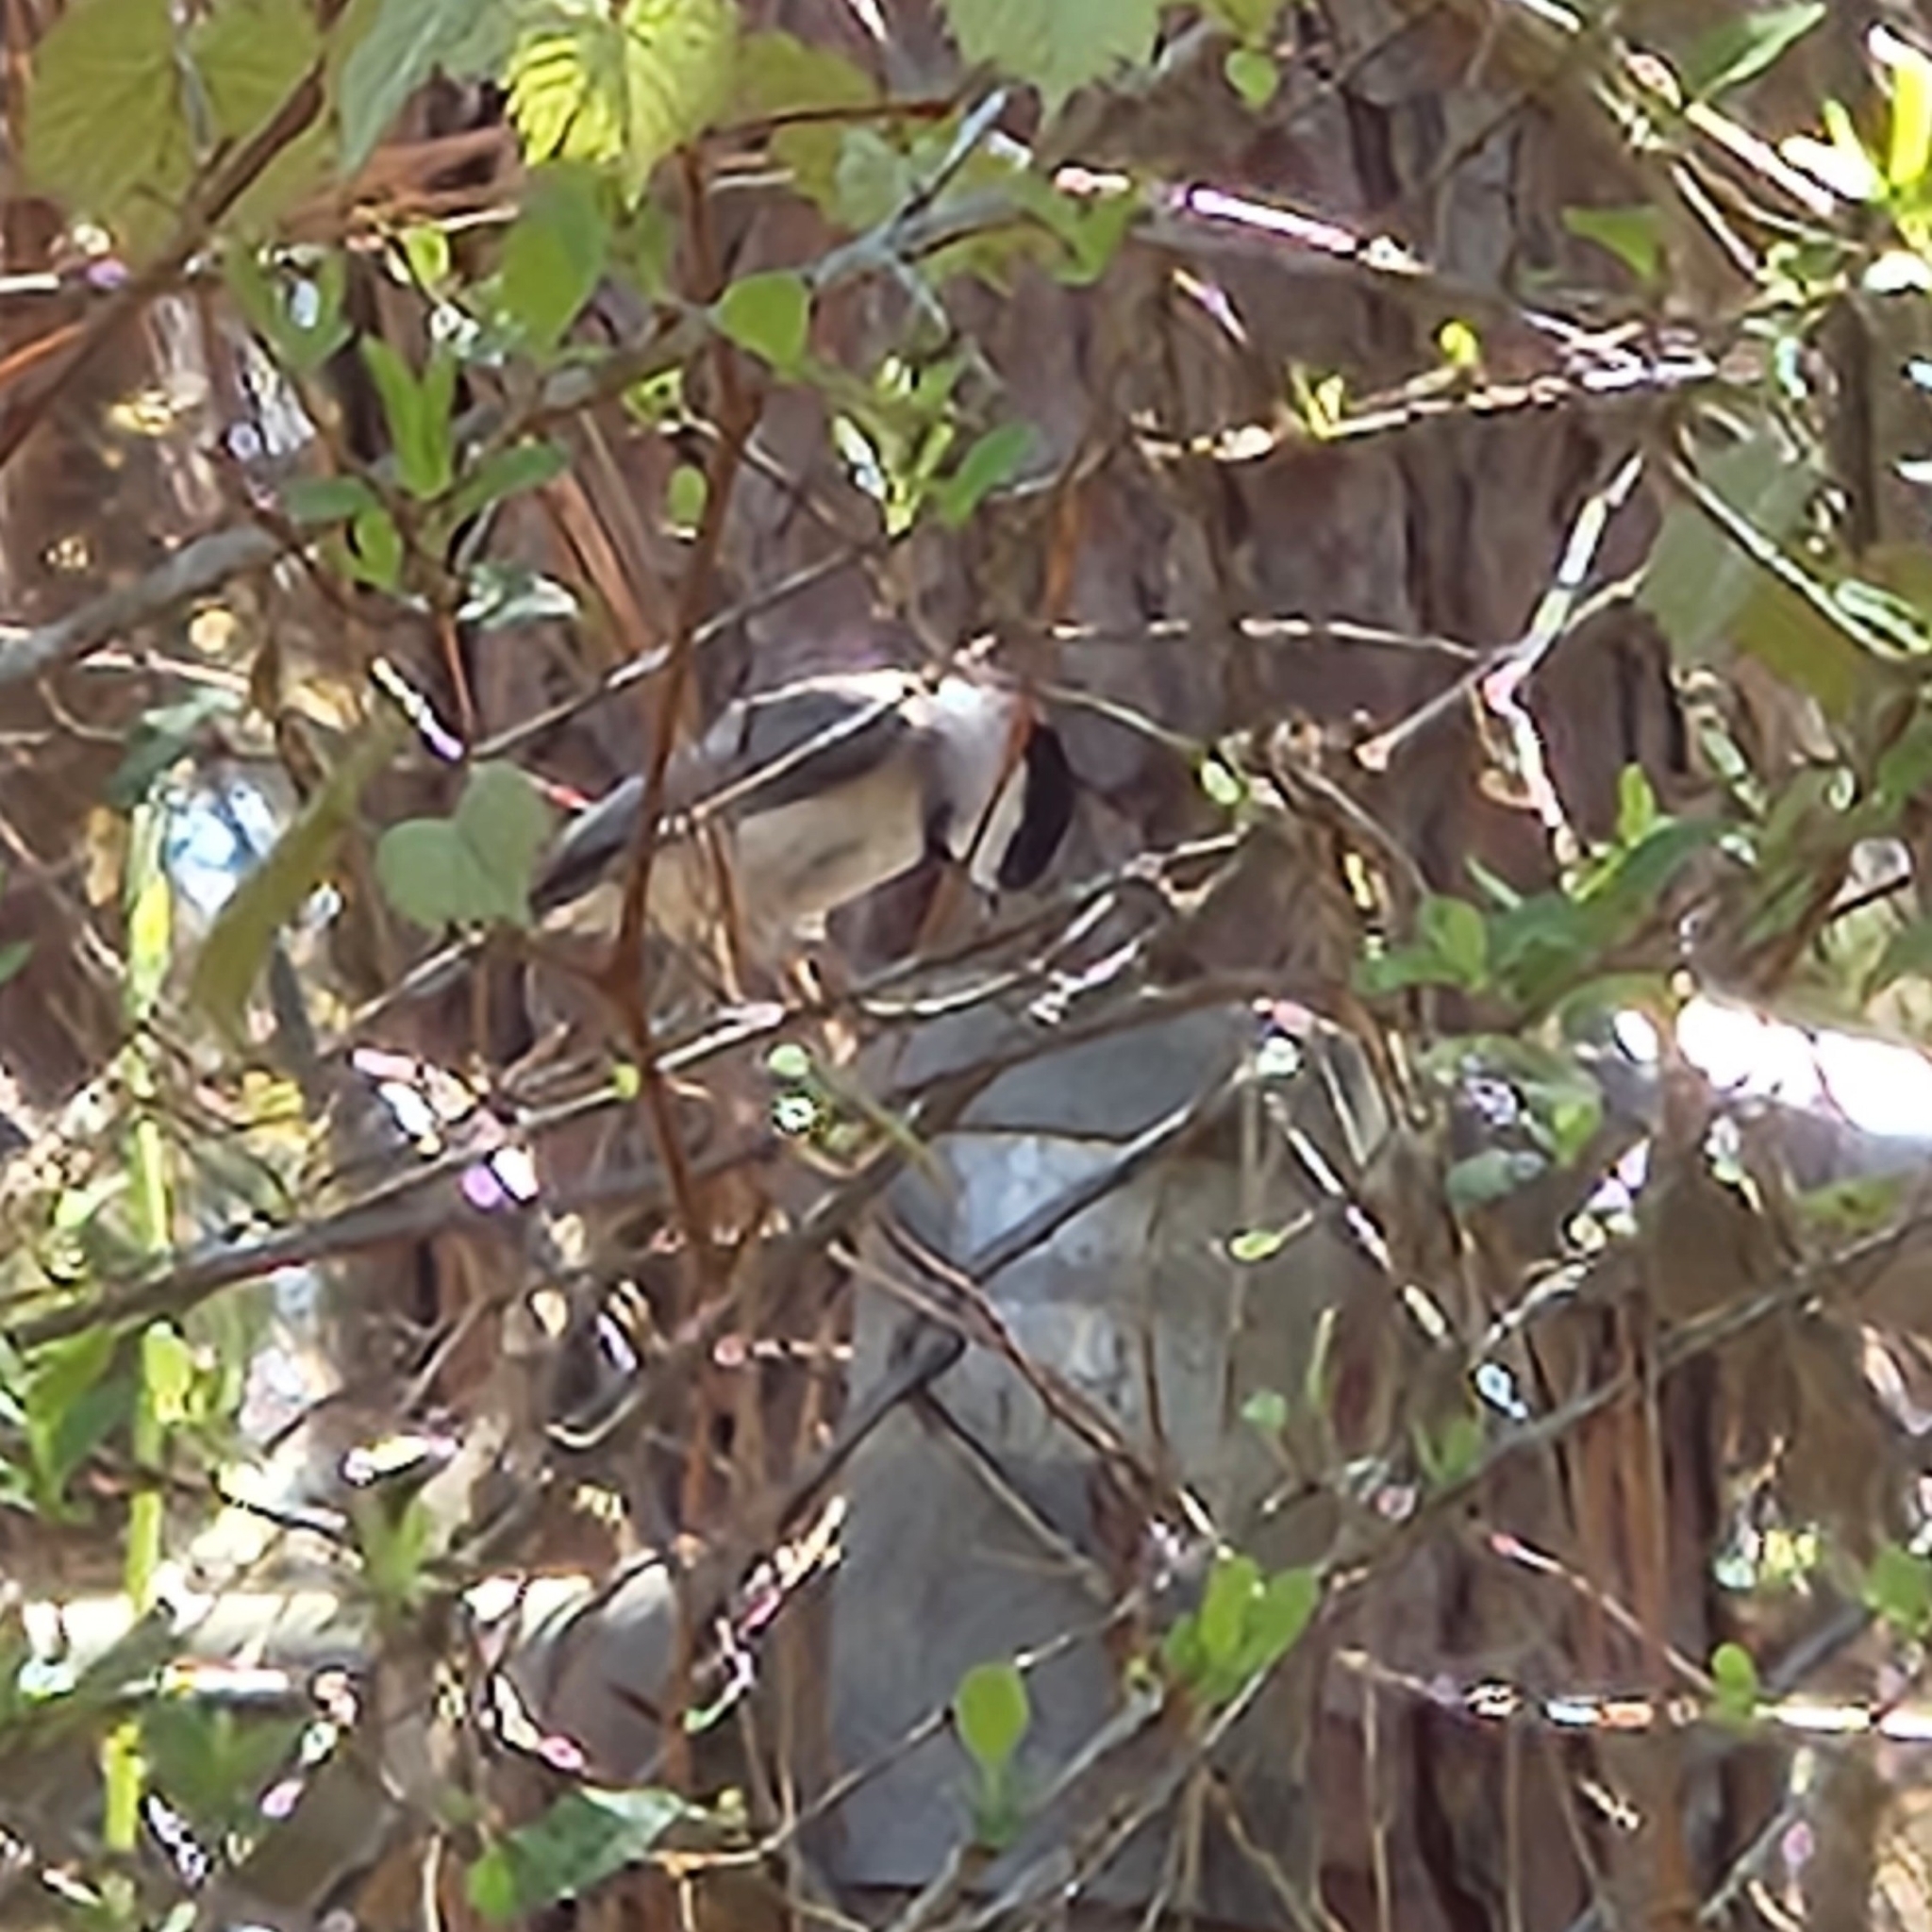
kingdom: Animalia
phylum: Chordata
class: Aves
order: Passeriformes
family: Paridae
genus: Poecile
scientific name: Poecile carolinensis
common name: Carolina chickadee
